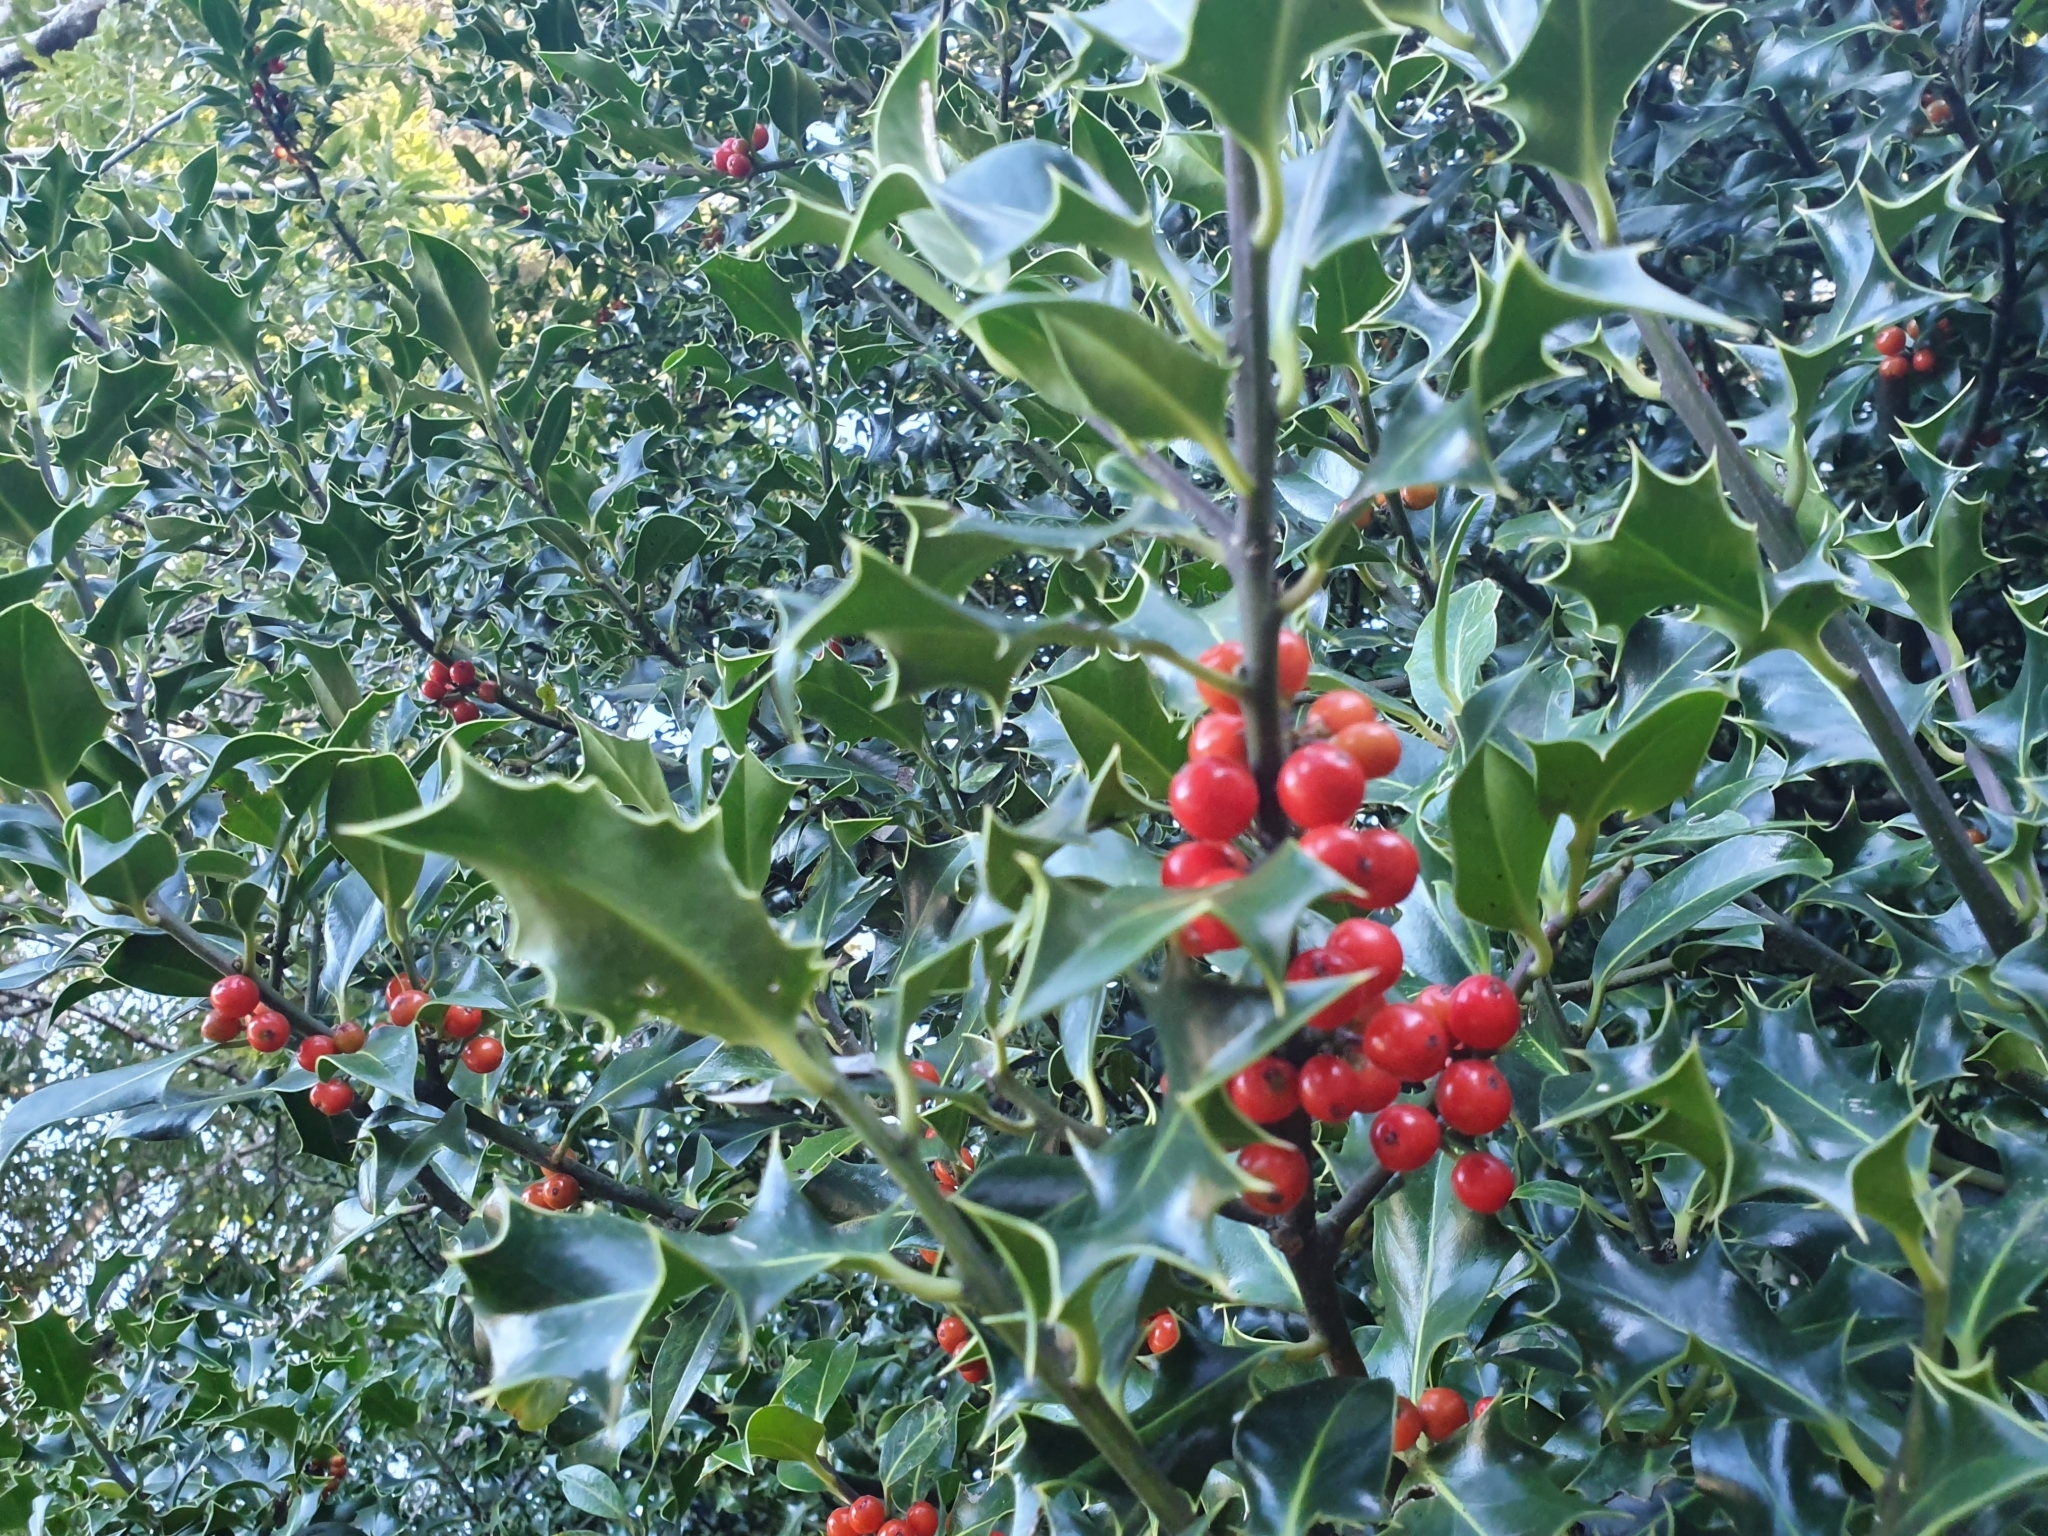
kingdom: Plantae
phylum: Tracheophyta
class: Magnoliopsida
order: Aquifoliales
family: Aquifoliaceae
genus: Ilex
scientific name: Ilex aquifolium
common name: English holly
